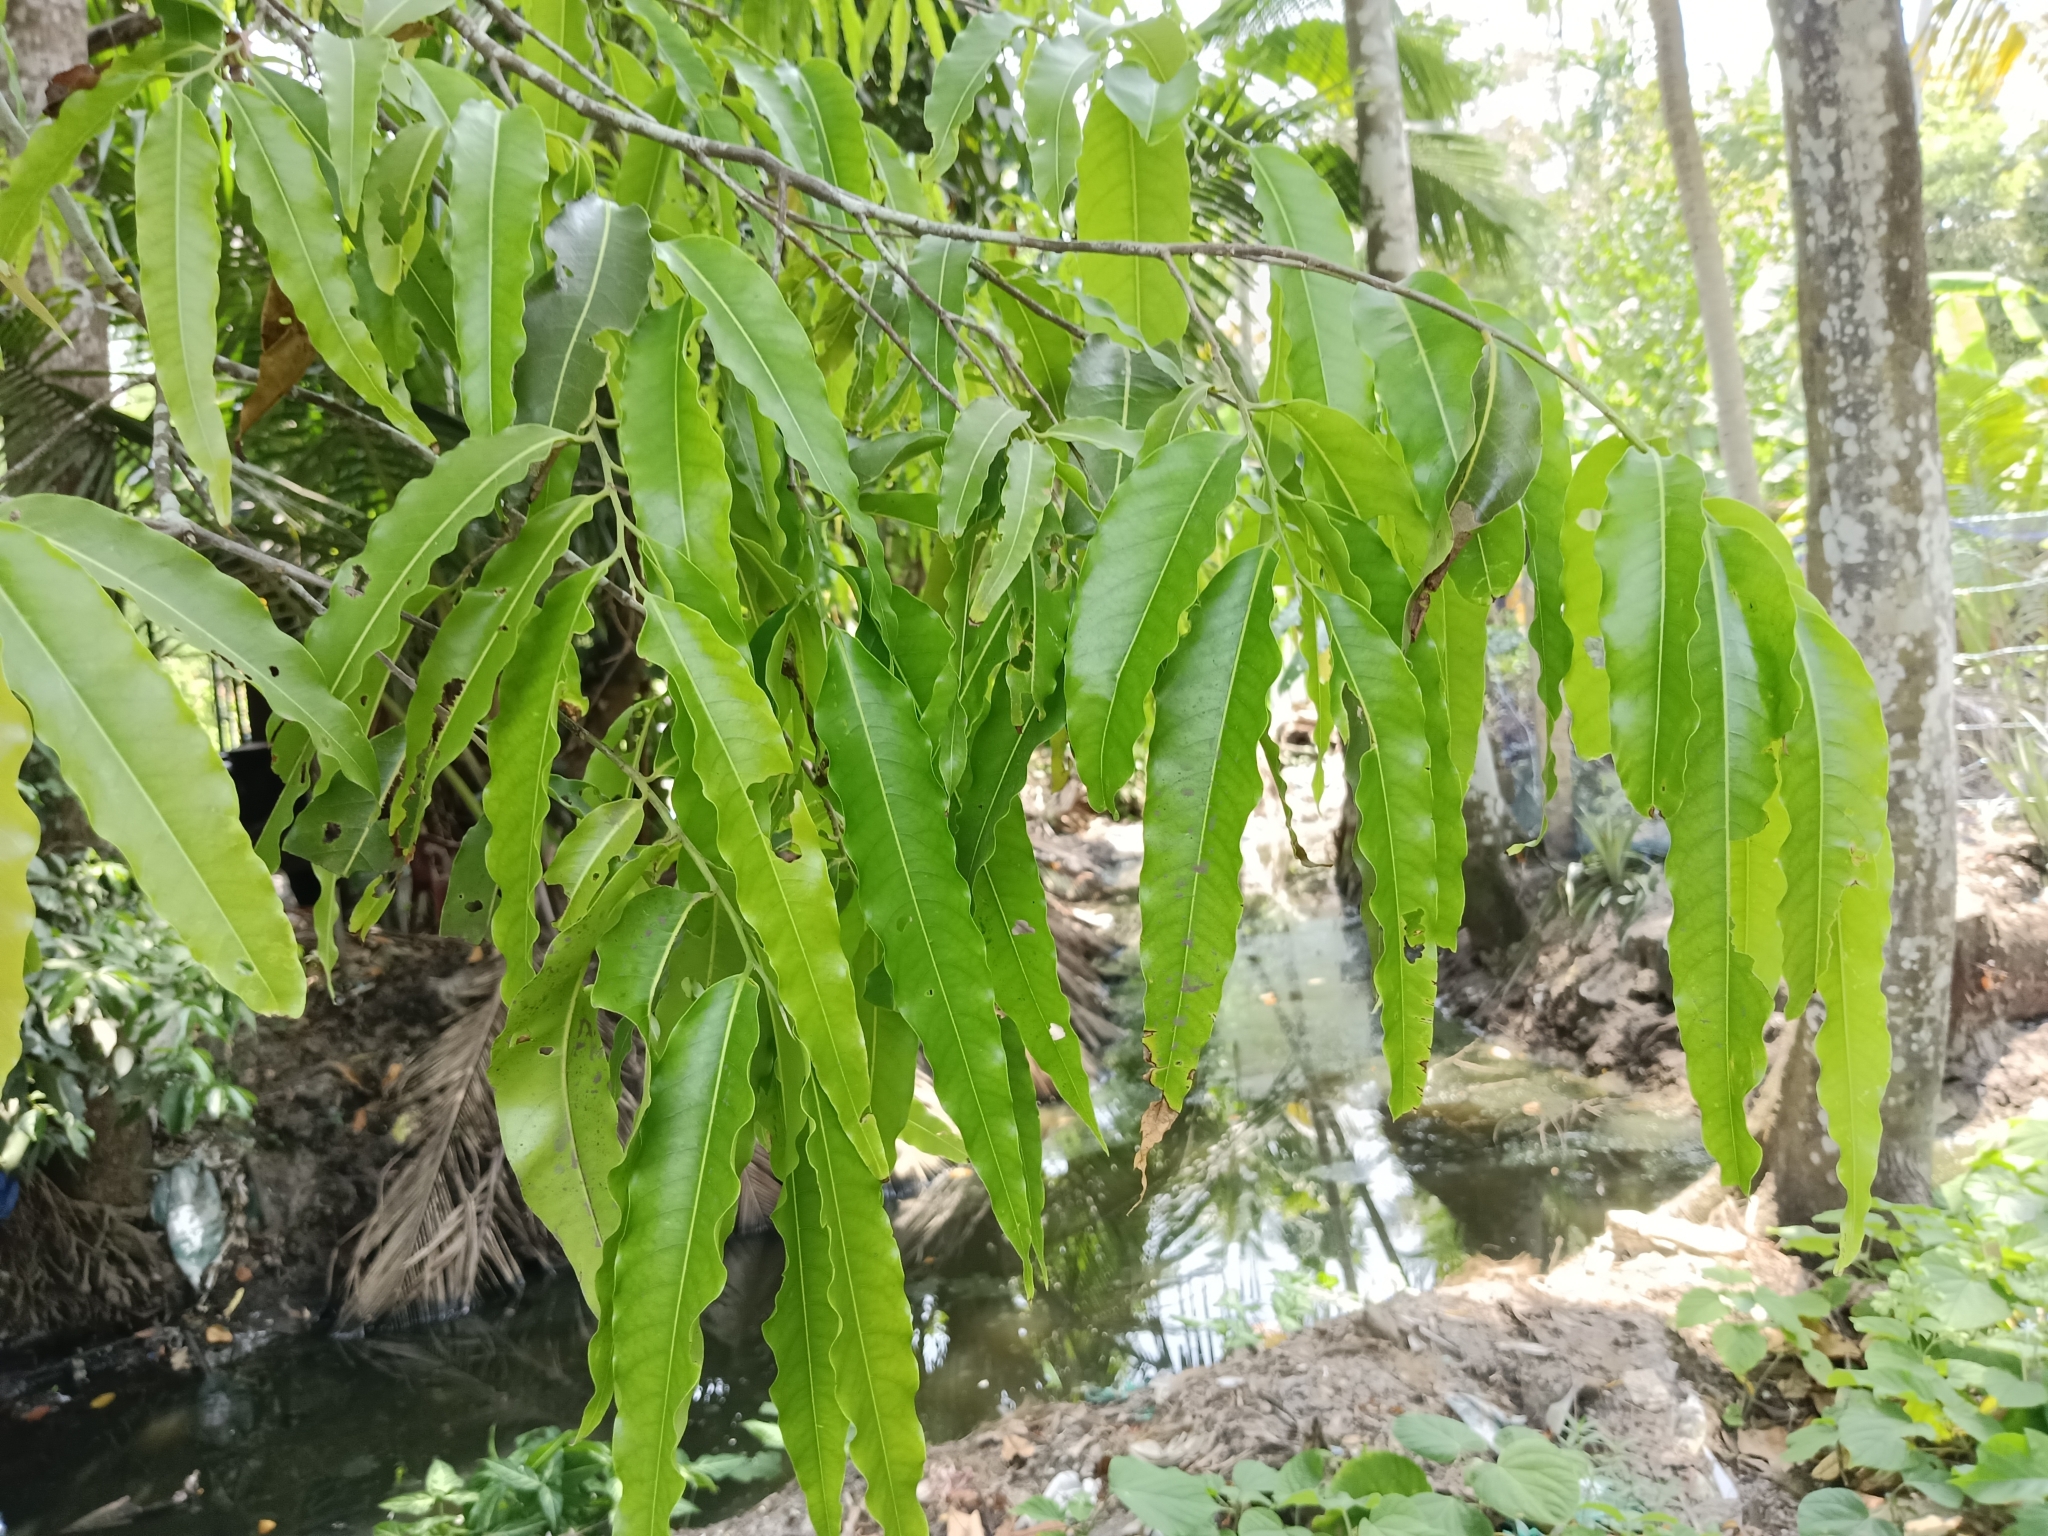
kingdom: Plantae
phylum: Tracheophyta
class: Magnoliopsida
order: Magnoliales
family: Annonaceae
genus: Polyalthia
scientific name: Polyalthia longifolia
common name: Cemetery-tree
